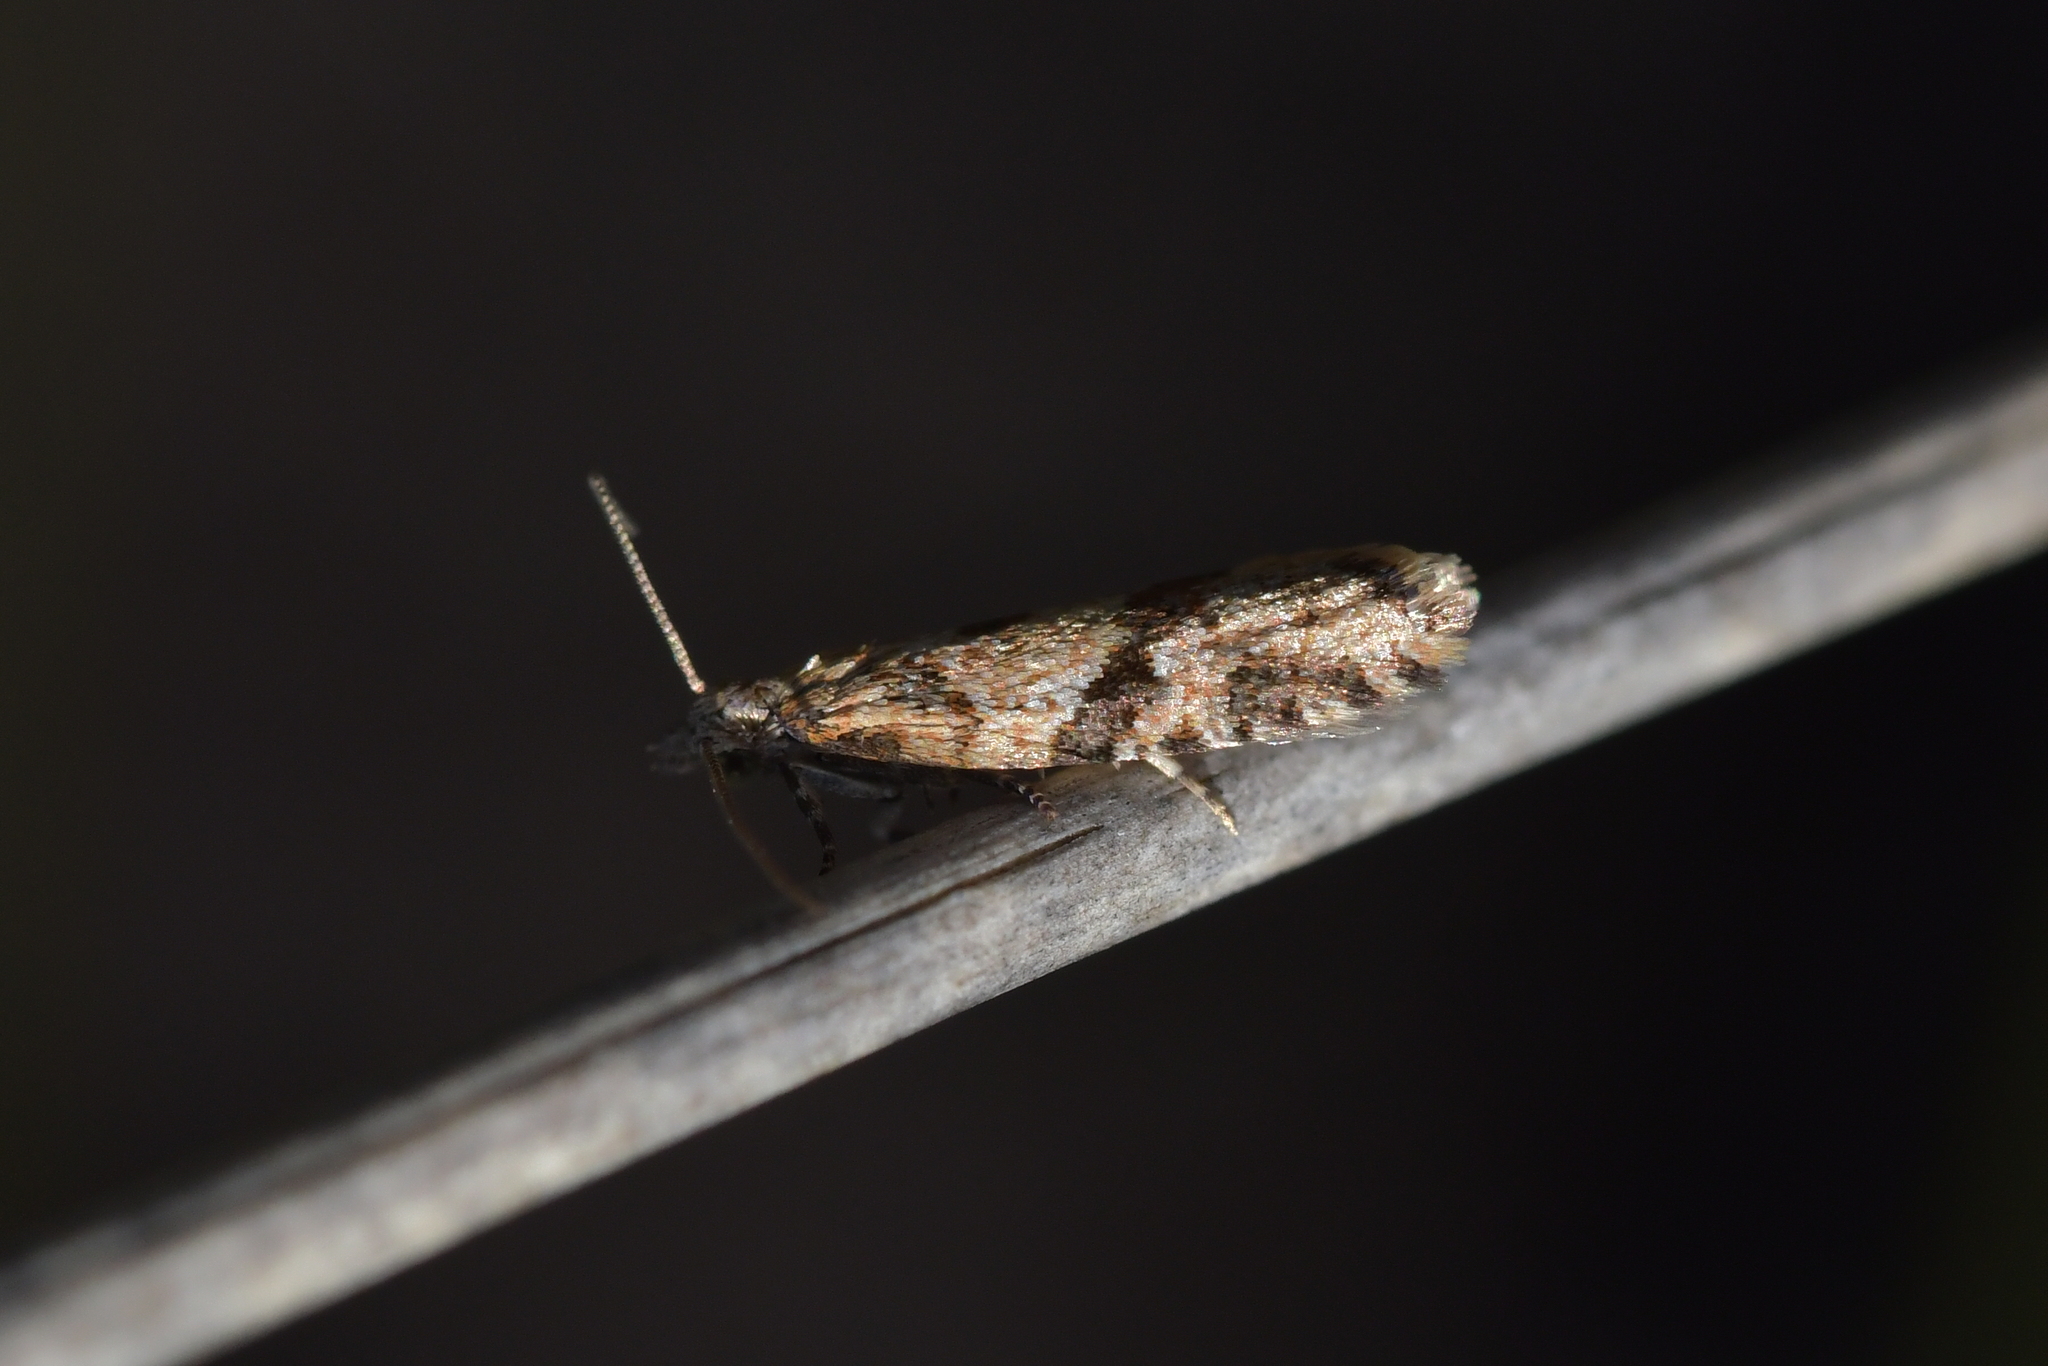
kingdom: Animalia
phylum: Arthropoda
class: Insecta
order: Lepidoptera
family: Tortricidae
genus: Capua
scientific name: Capua semiferana
